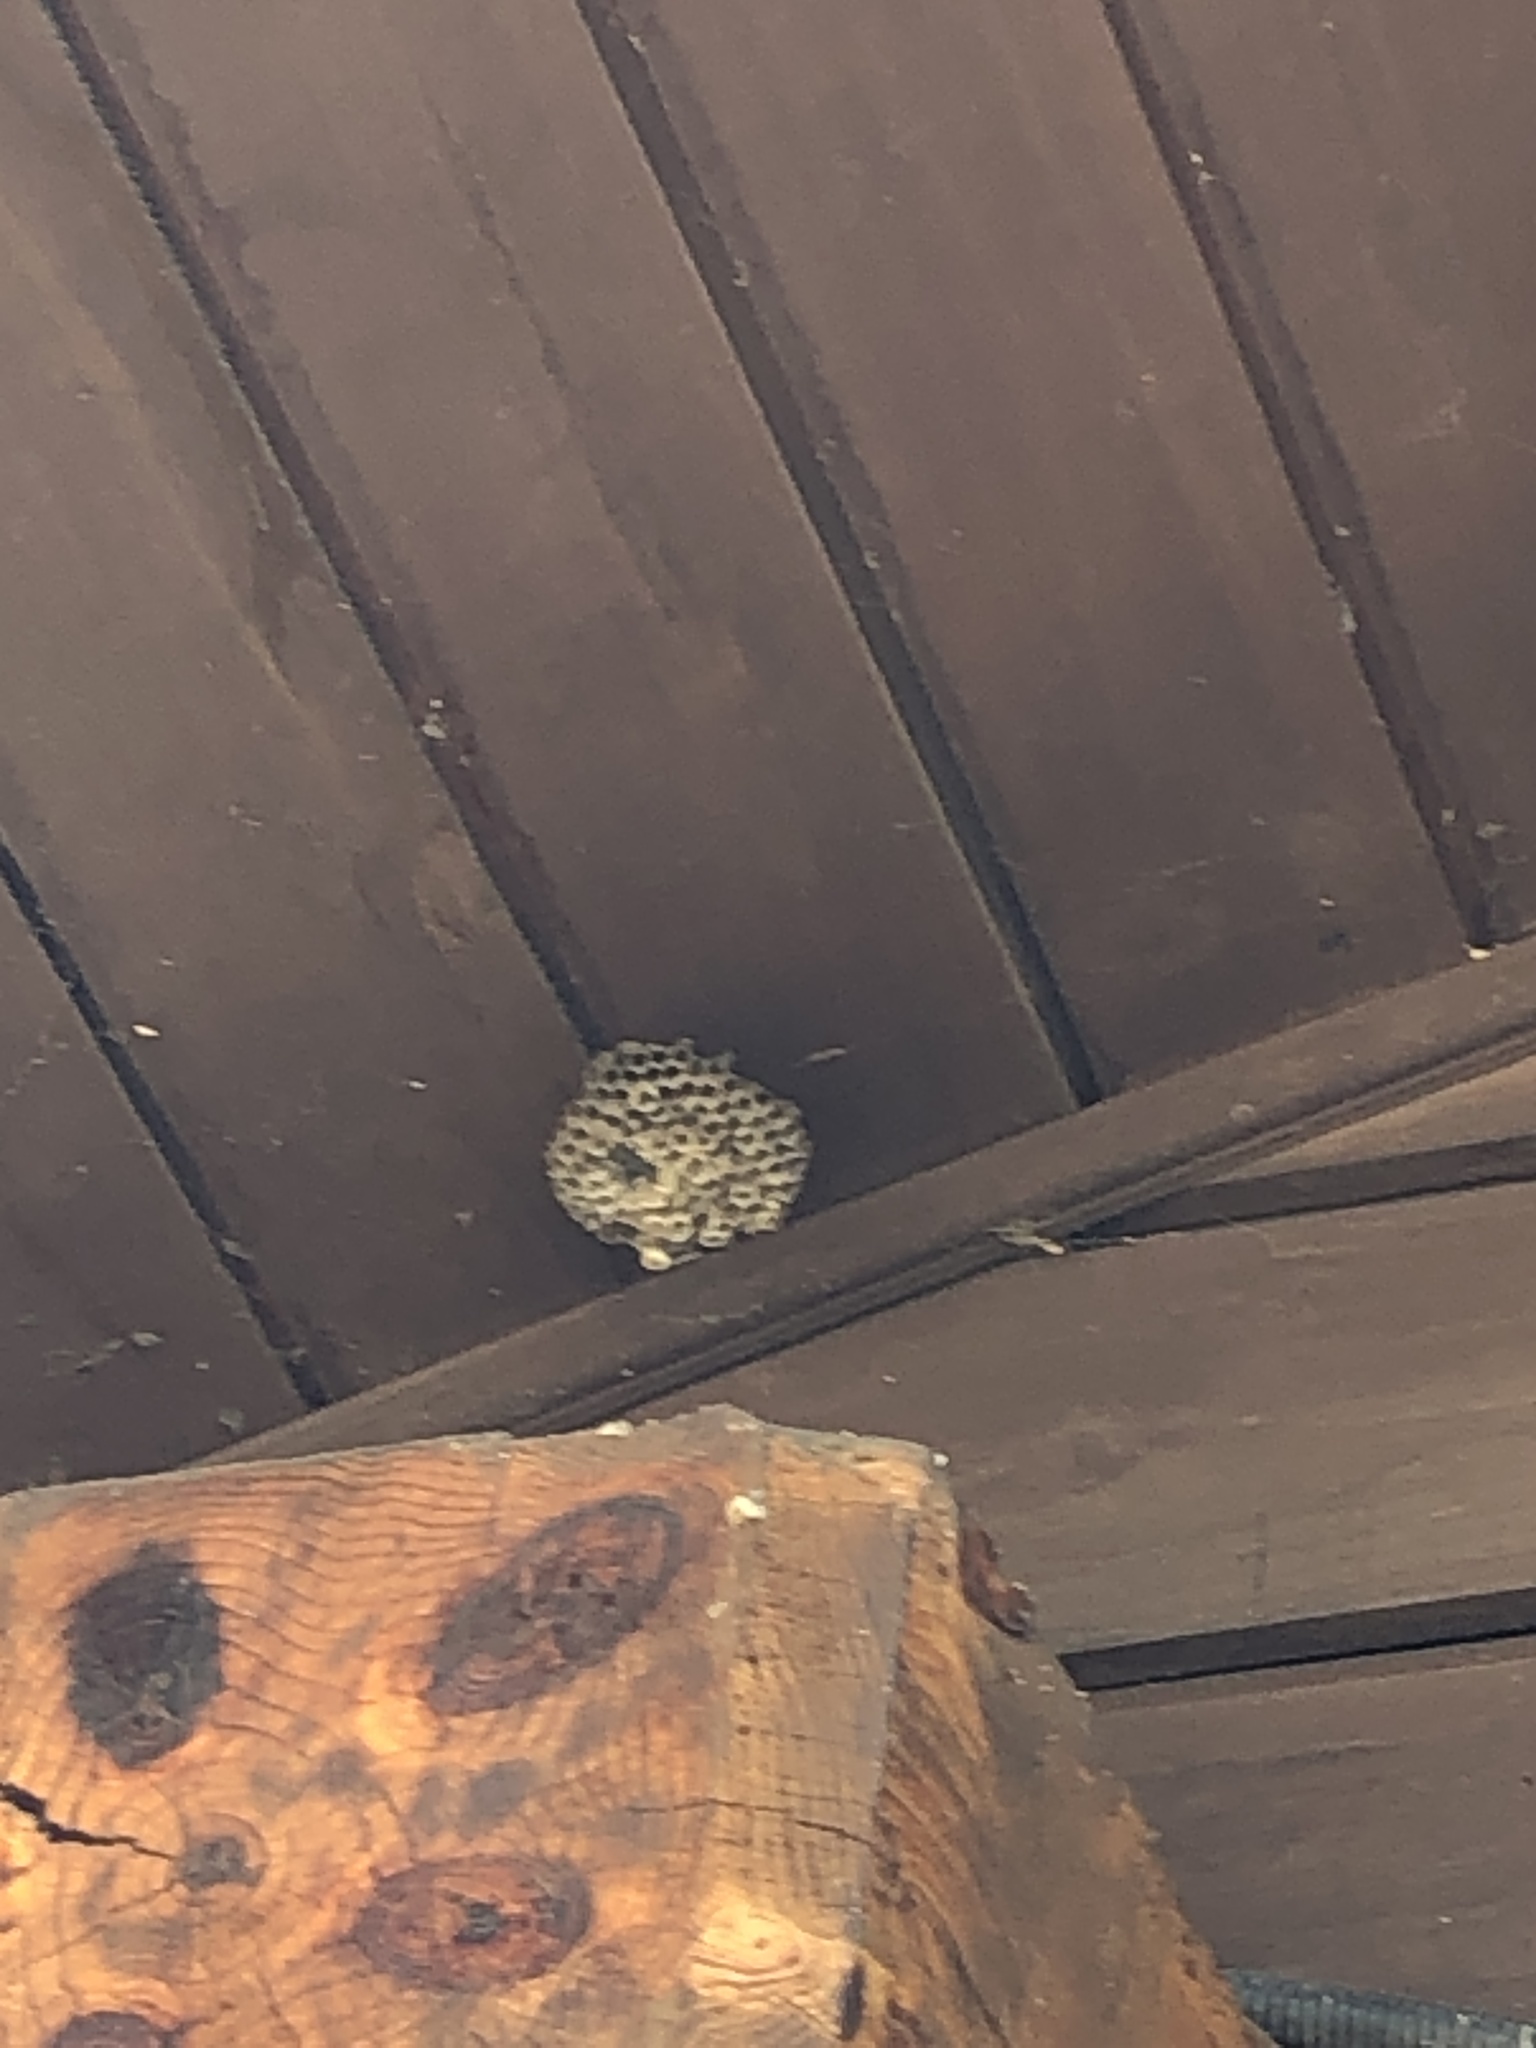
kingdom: Animalia
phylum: Arthropoda
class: Insecta
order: Hymenoptera
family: Vespidae
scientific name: Vespidae
